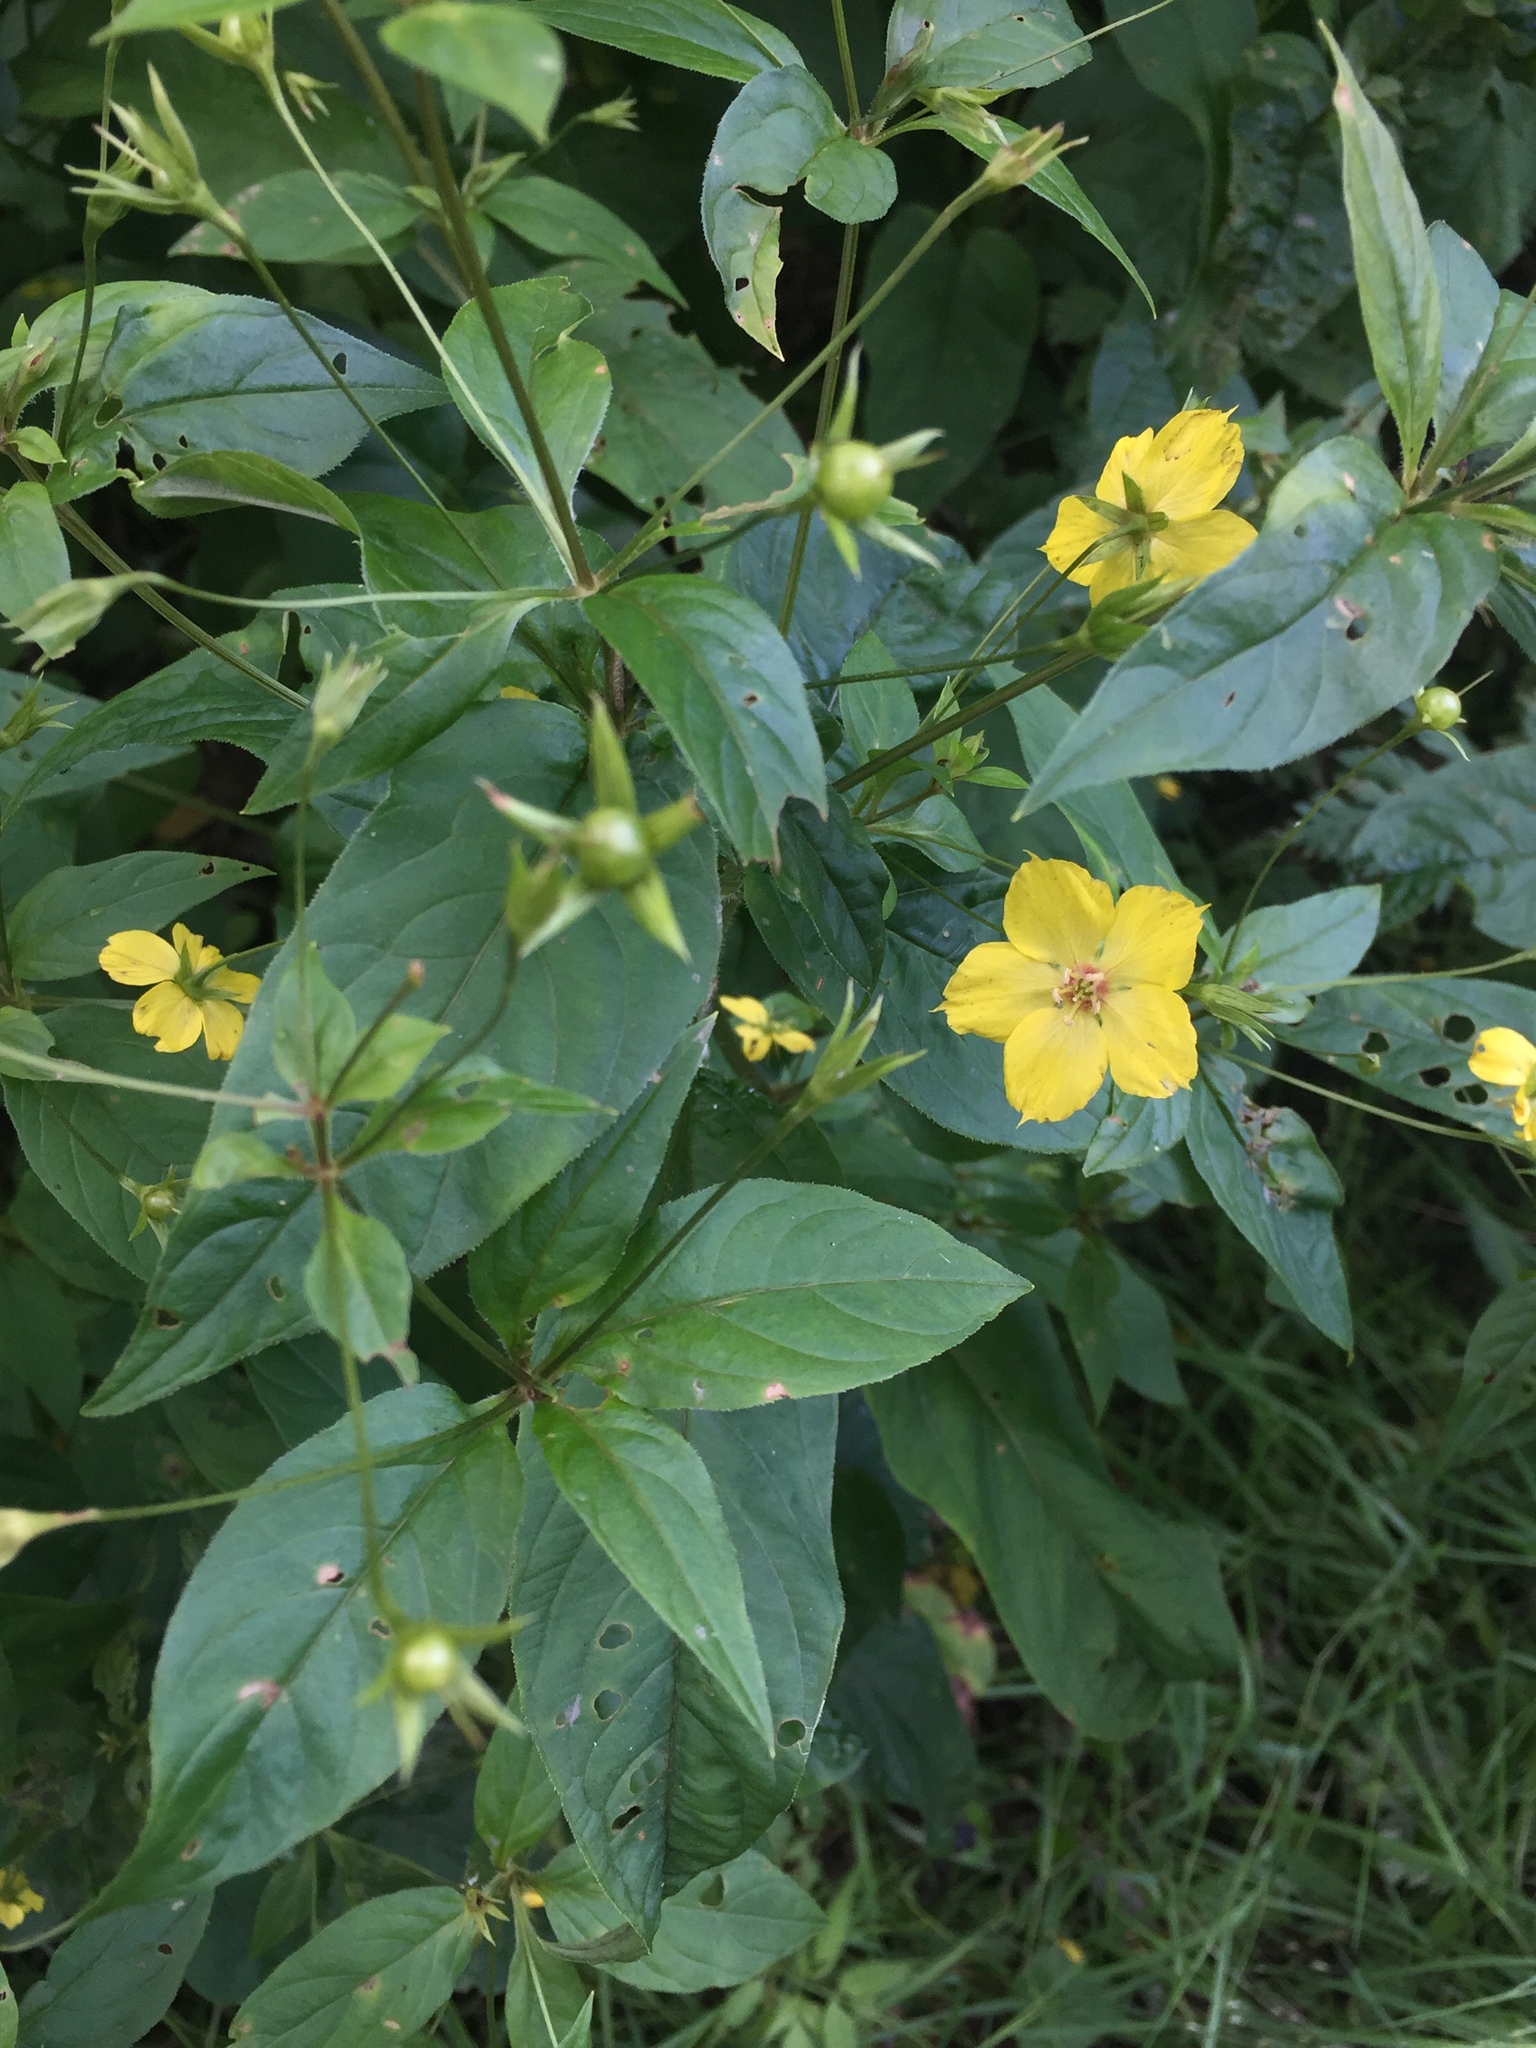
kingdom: Plantae
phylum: Tracheophyta
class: Magnoliopsida
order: Ericales
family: Primulaceae
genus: Lysimachia
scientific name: Lysimachia ciliata
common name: Fringed loosestrife
